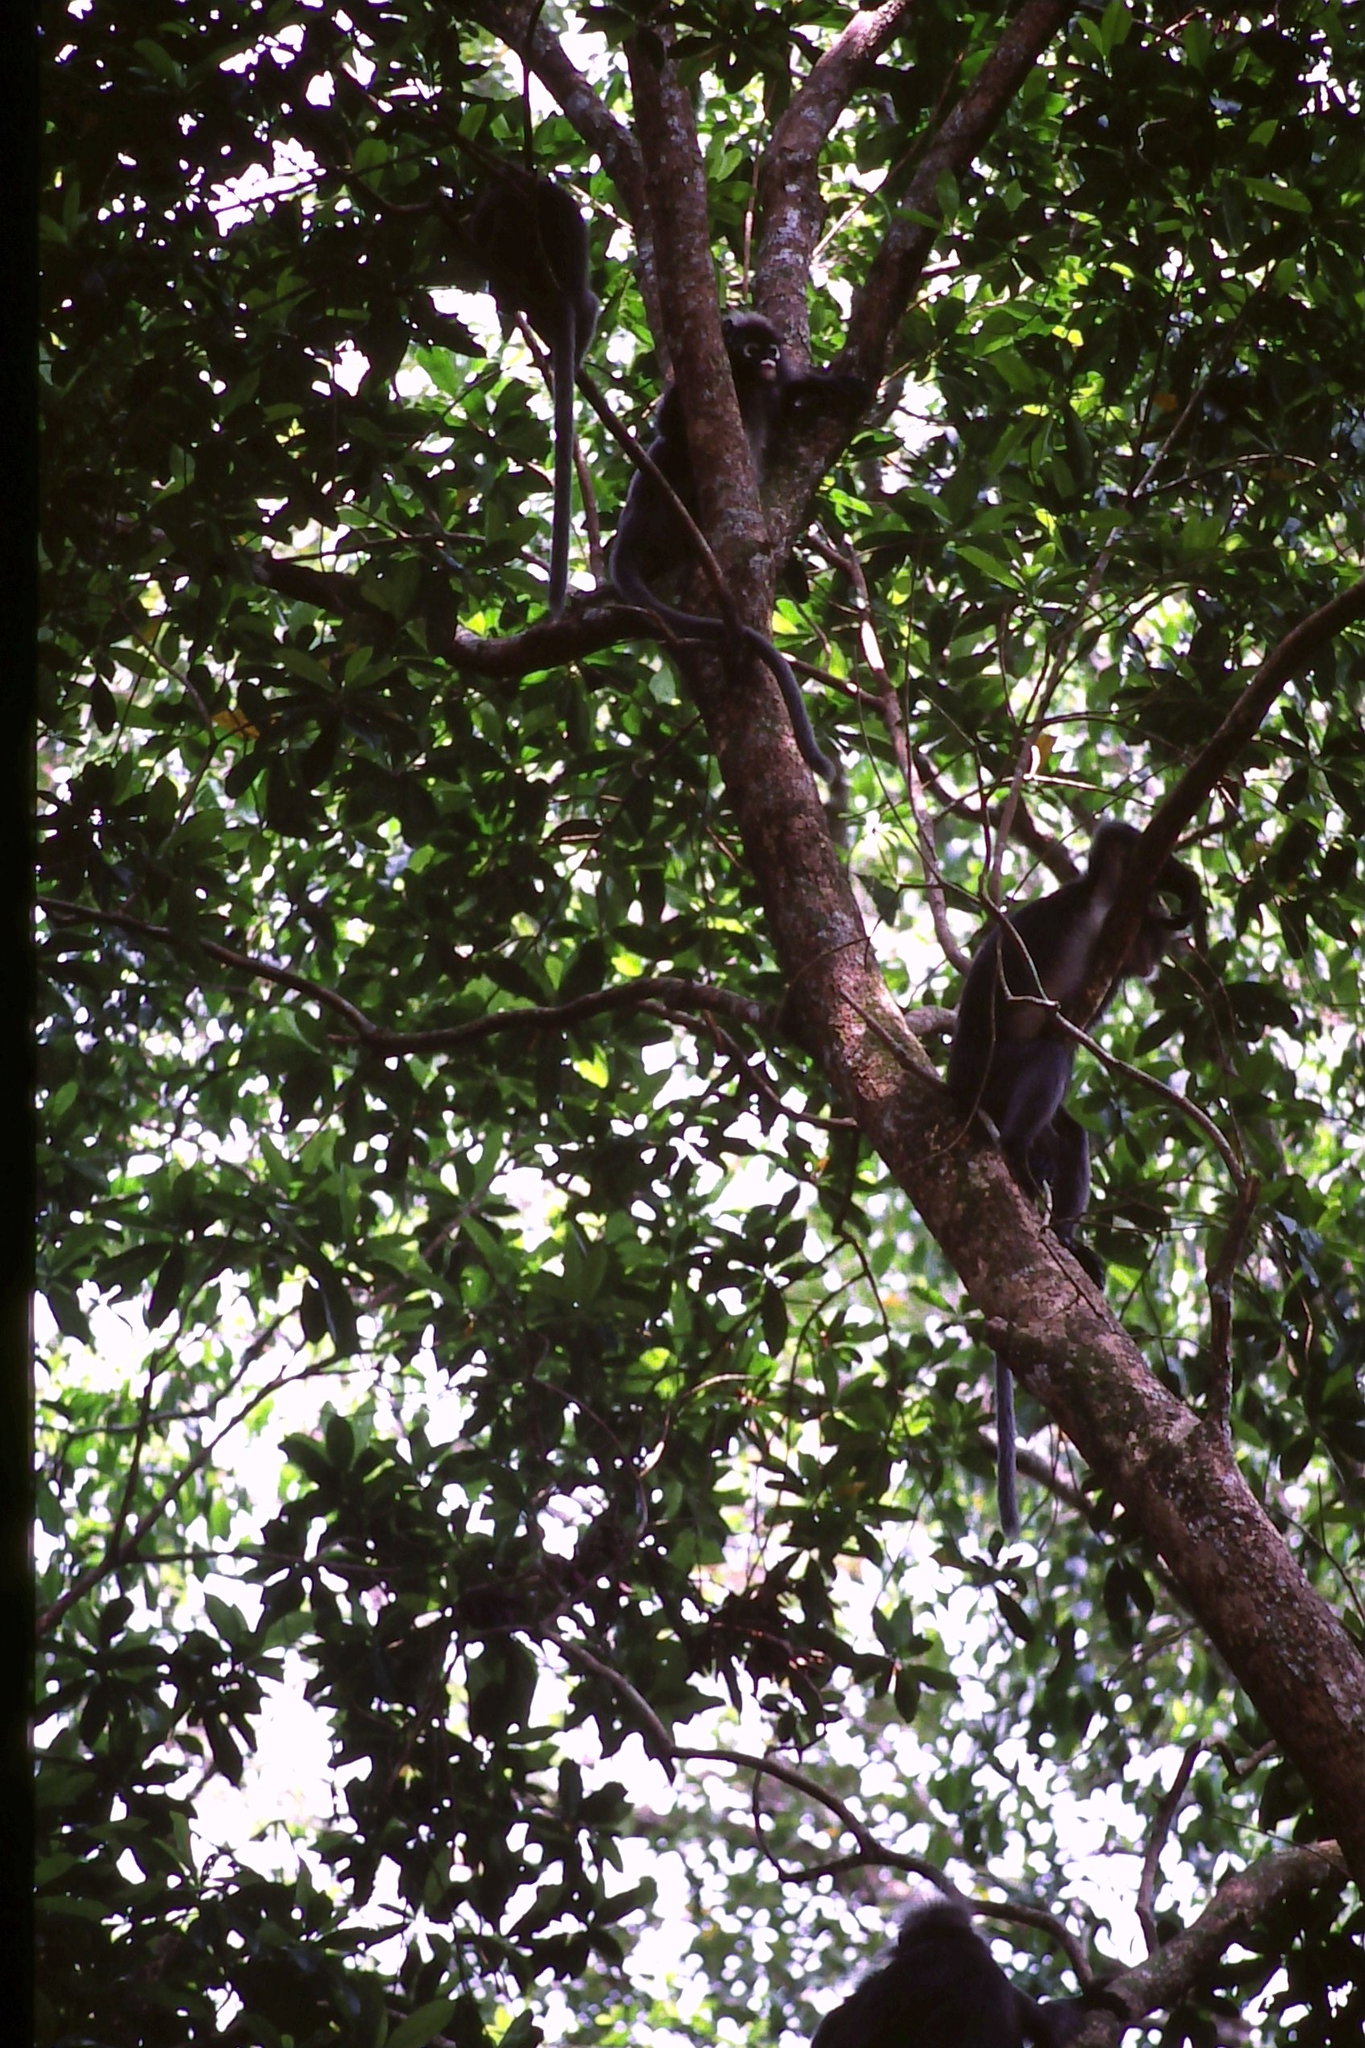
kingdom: Animalia
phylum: Chordata
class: Mammalia
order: Primates
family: Cercopithecidae
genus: Trachypithecus
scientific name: Trachypithecus obscurus
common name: Dusky leaf-monkey
